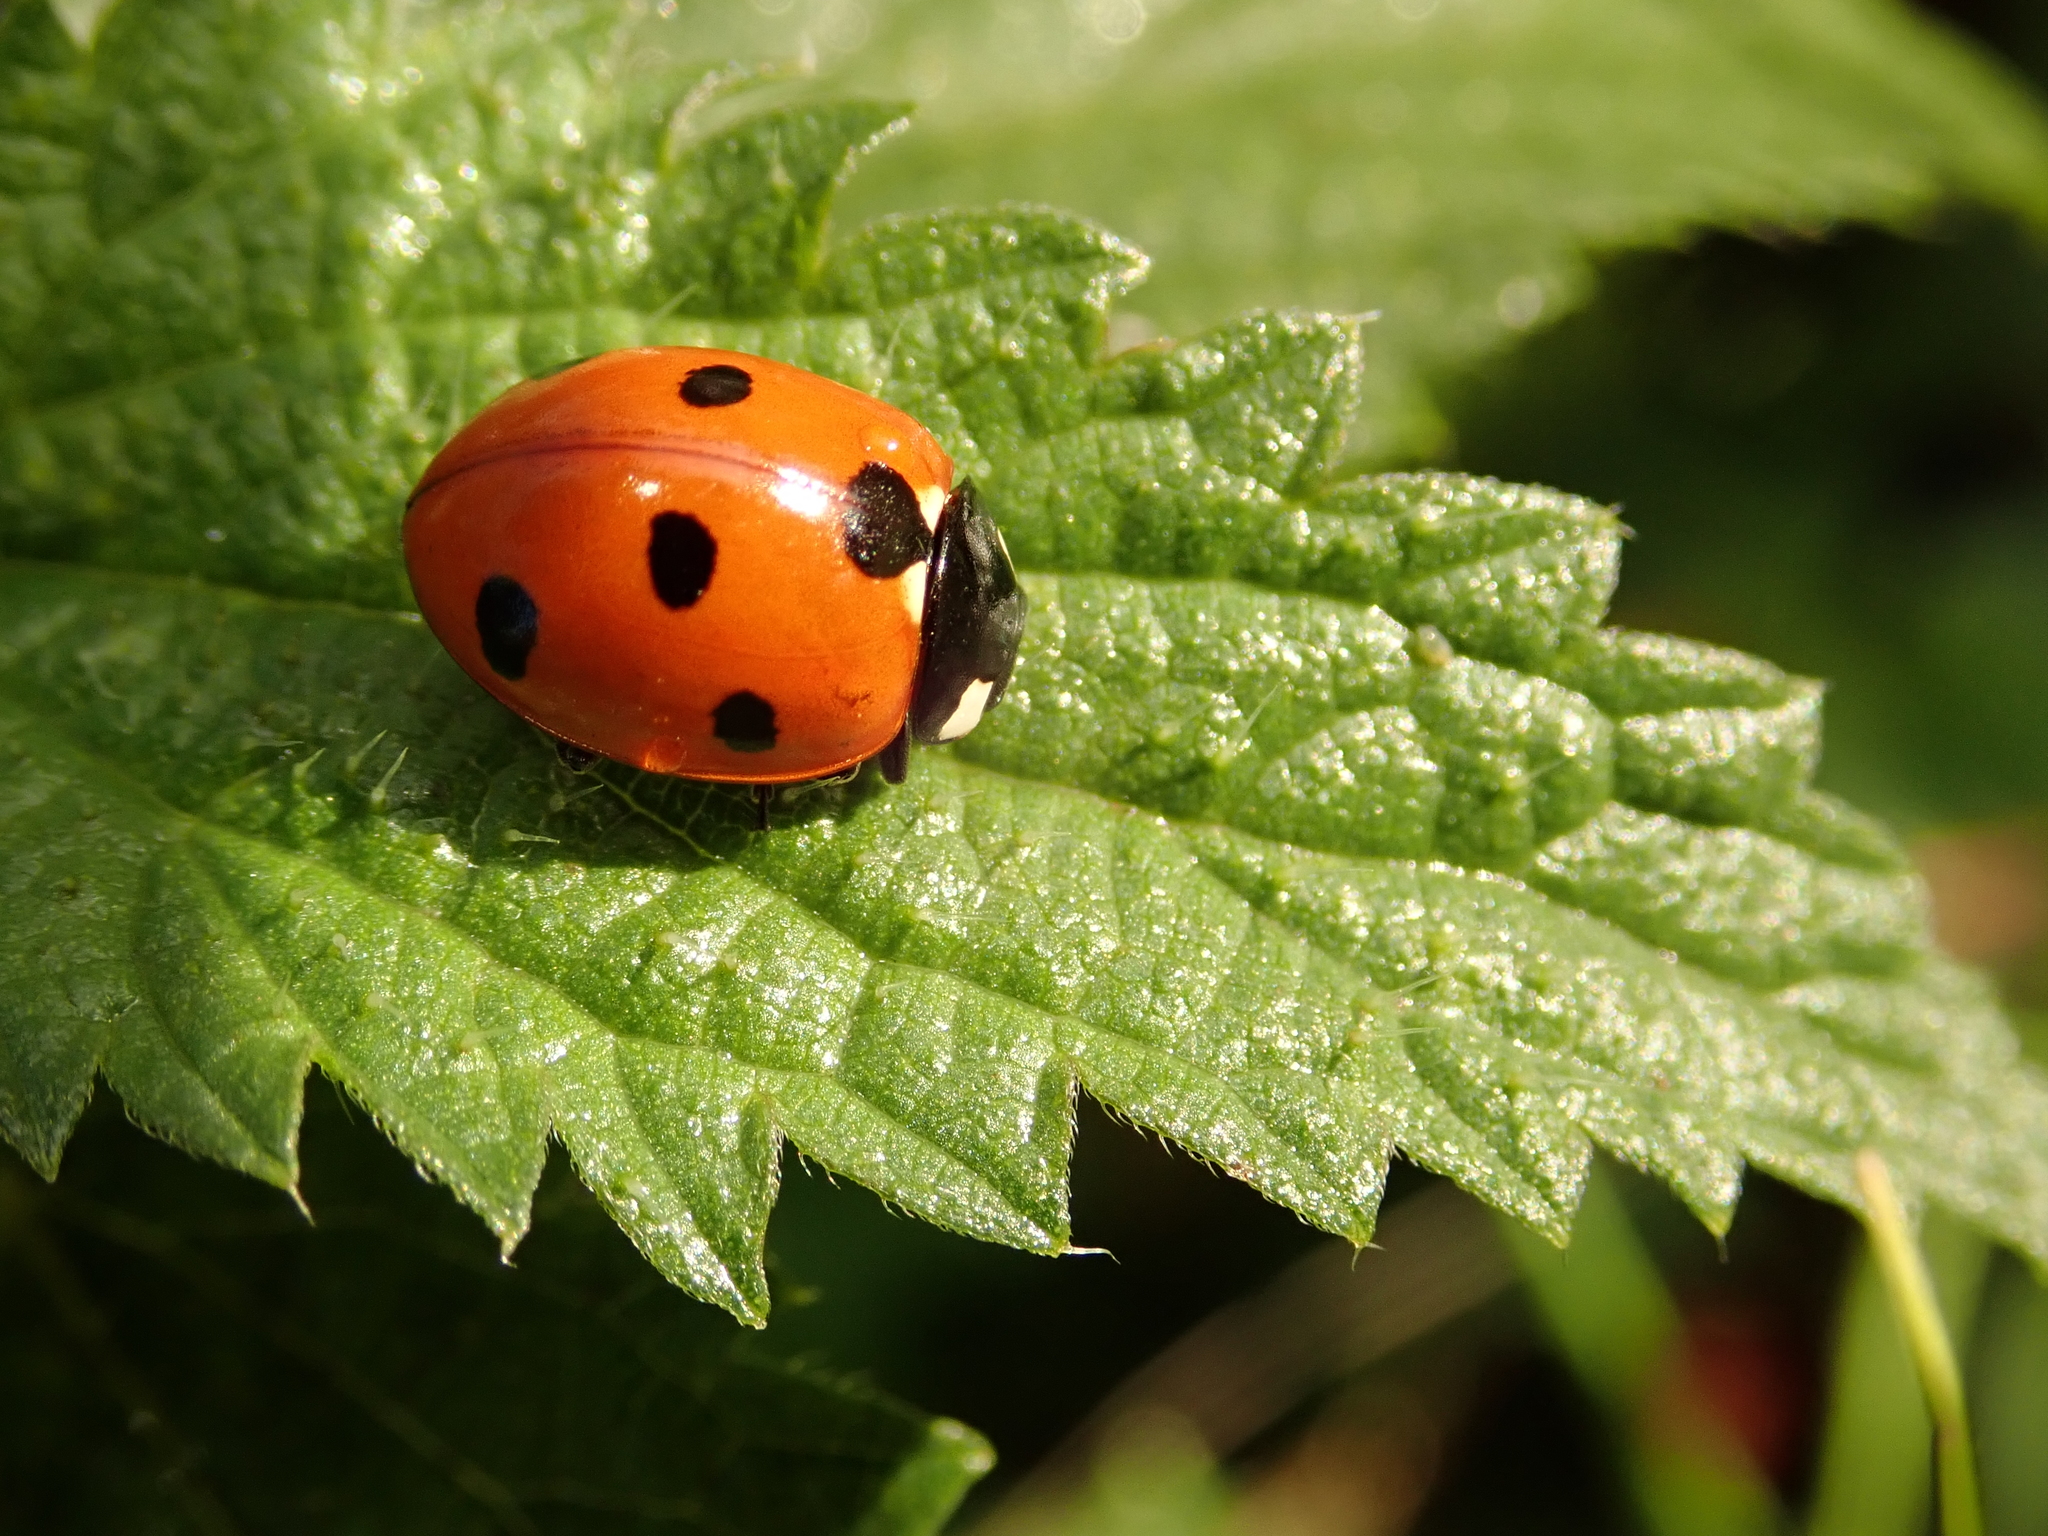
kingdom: Animalia
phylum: Arthropoda
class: Insecta
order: Coleoptera
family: Coccinellidae
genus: Coccinella
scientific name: Coccinella septempunctata
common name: Sevenspotted lady beetle
